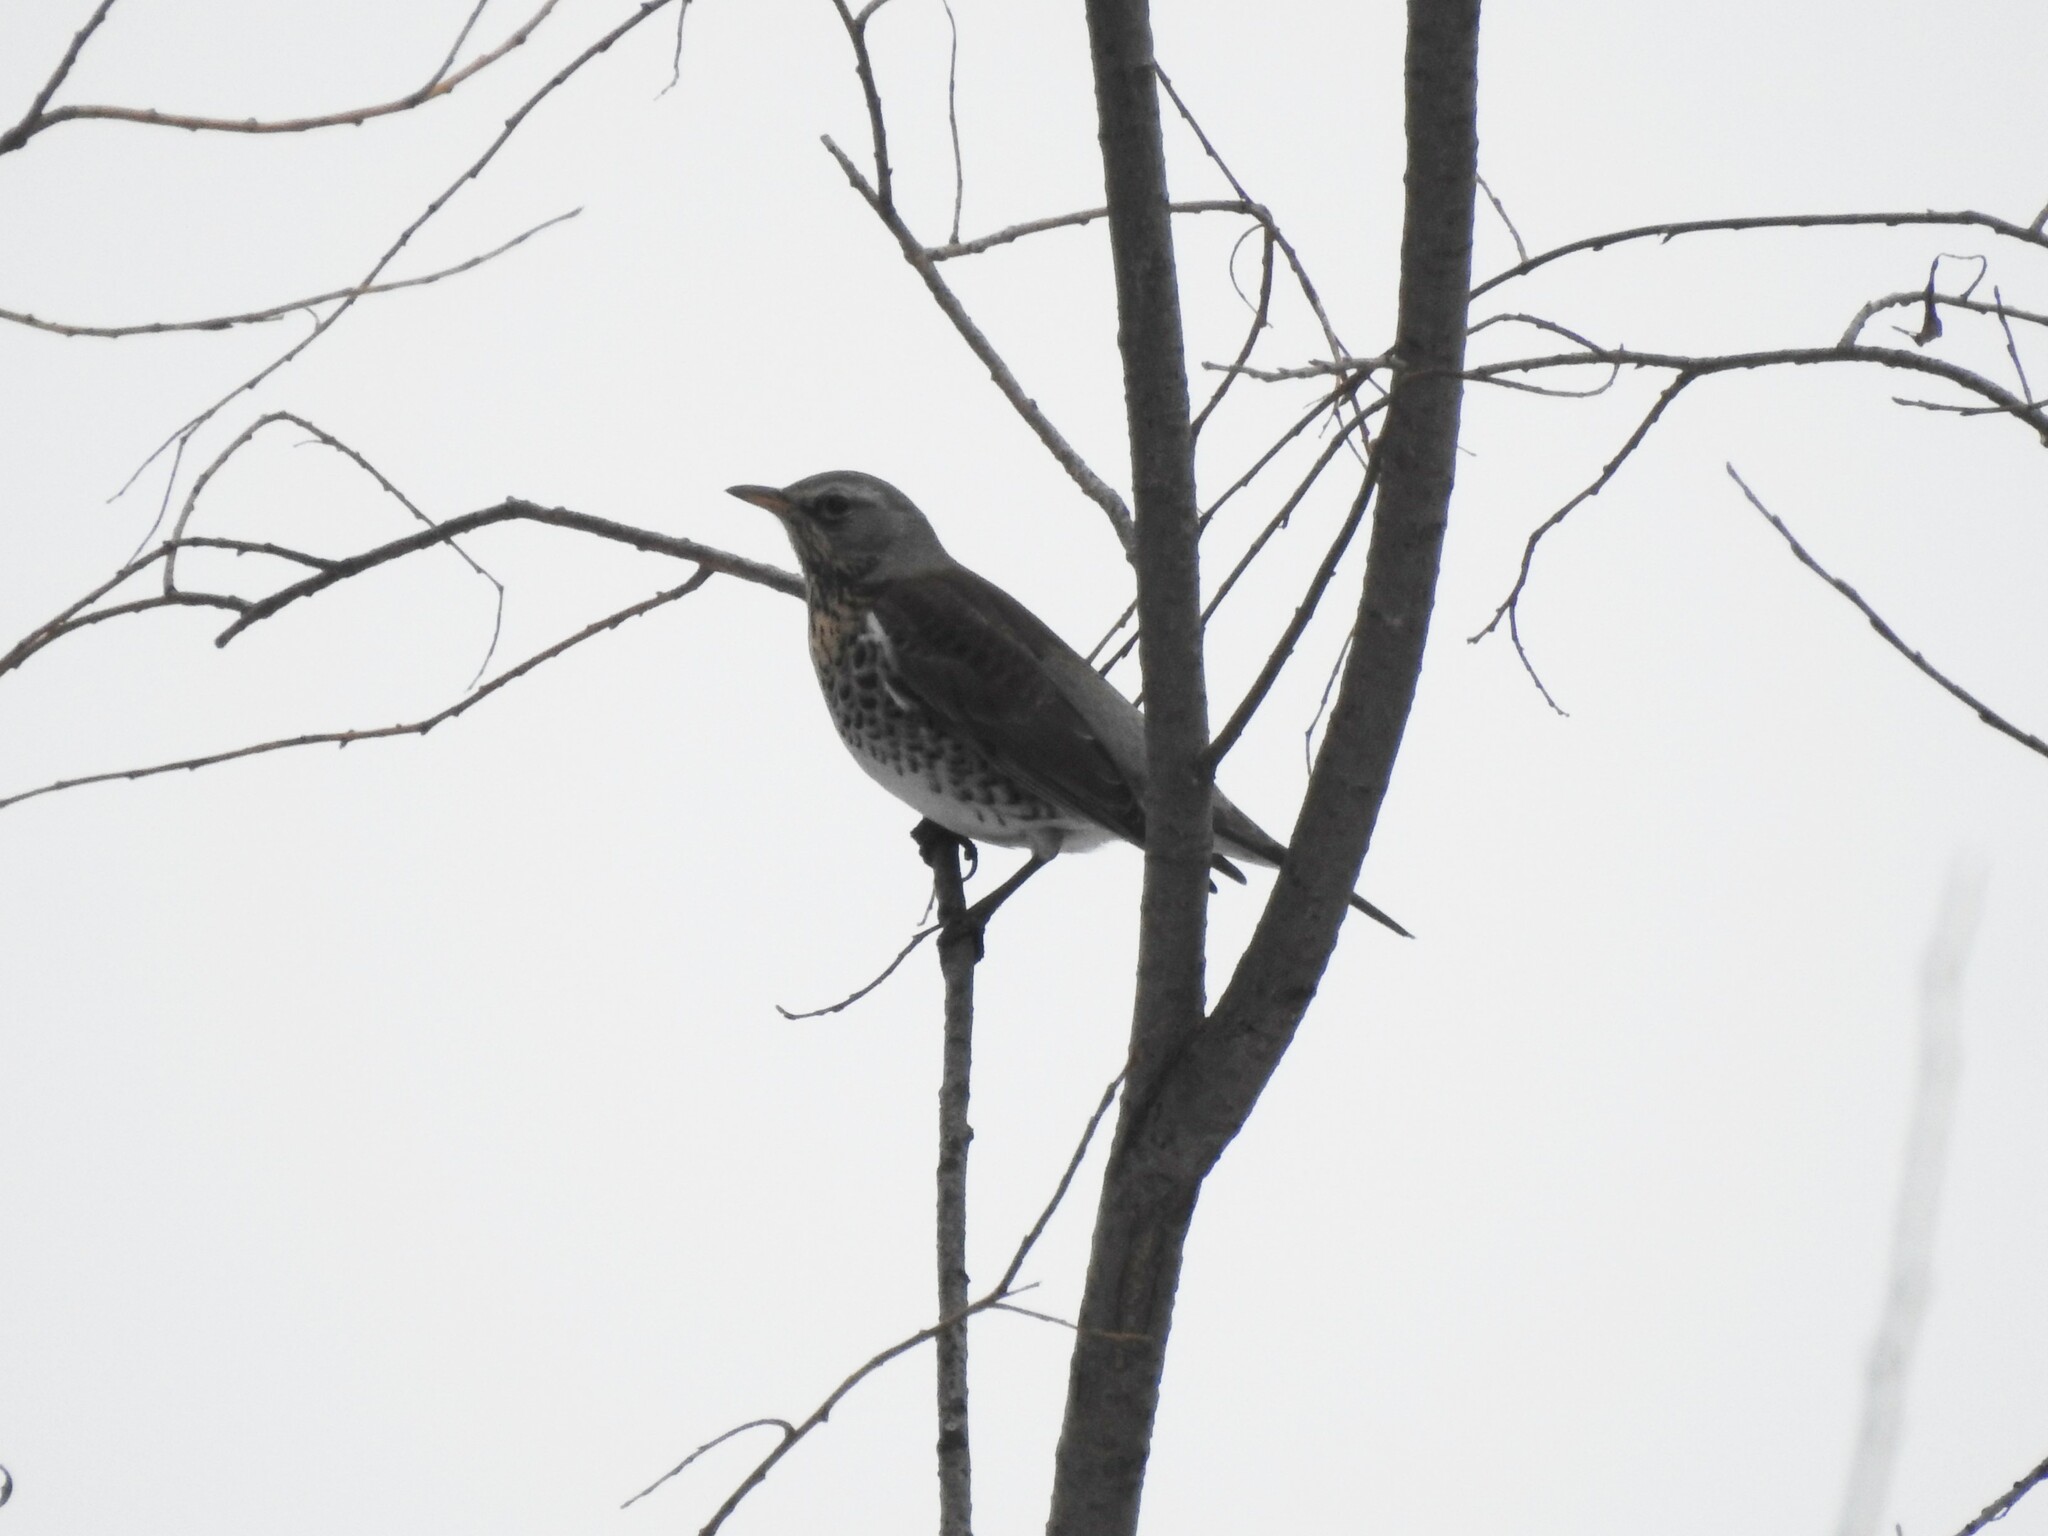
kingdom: Animalia
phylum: Chordata
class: Aves
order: Passeriformes
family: Turdidae
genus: Turdus
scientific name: Turdus pilaris
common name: Fieldfare
